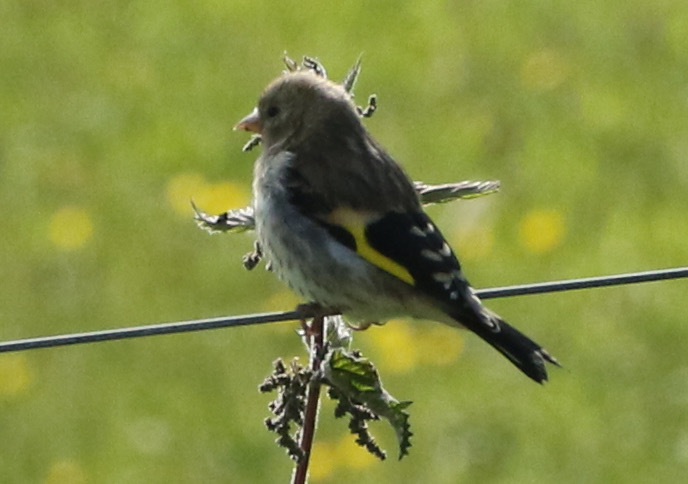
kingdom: Animalia
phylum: Chordata
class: Aves
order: Passeriformes
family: Fringillidae
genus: Carduelis
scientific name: Carduelis carduelis
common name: European goldfinch
